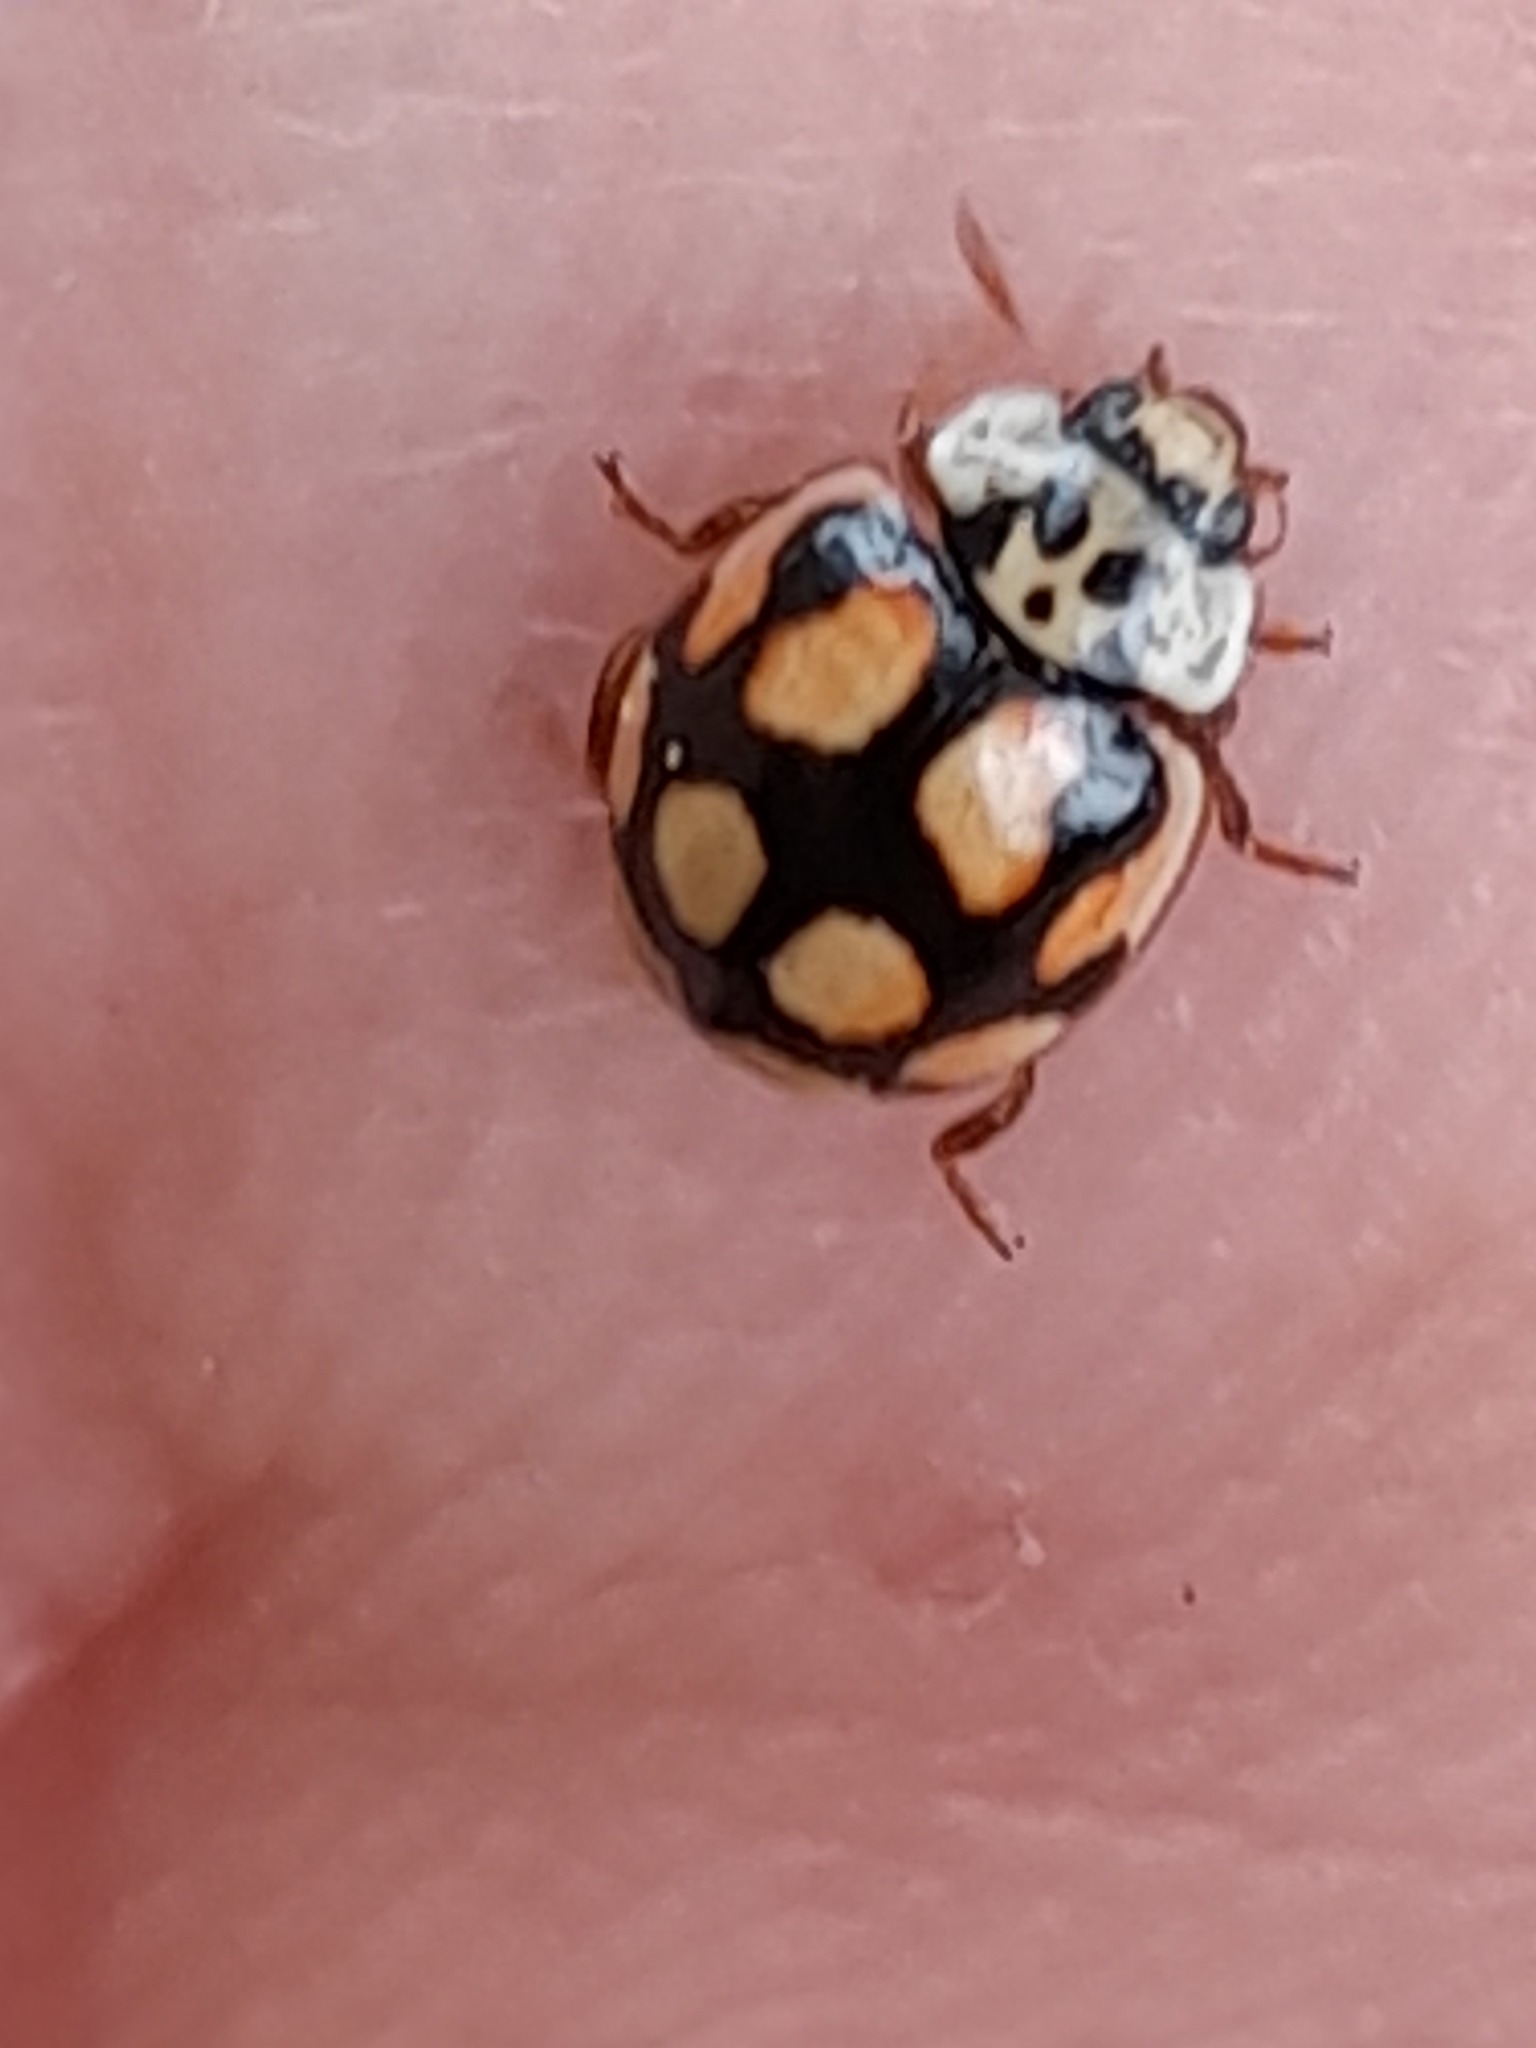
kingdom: Animalia
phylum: Arthropoda
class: Insecta
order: Coleoptera
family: Coccinellidae
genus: Adalia
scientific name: Adalia decempunctata
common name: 10-spot ladybird
